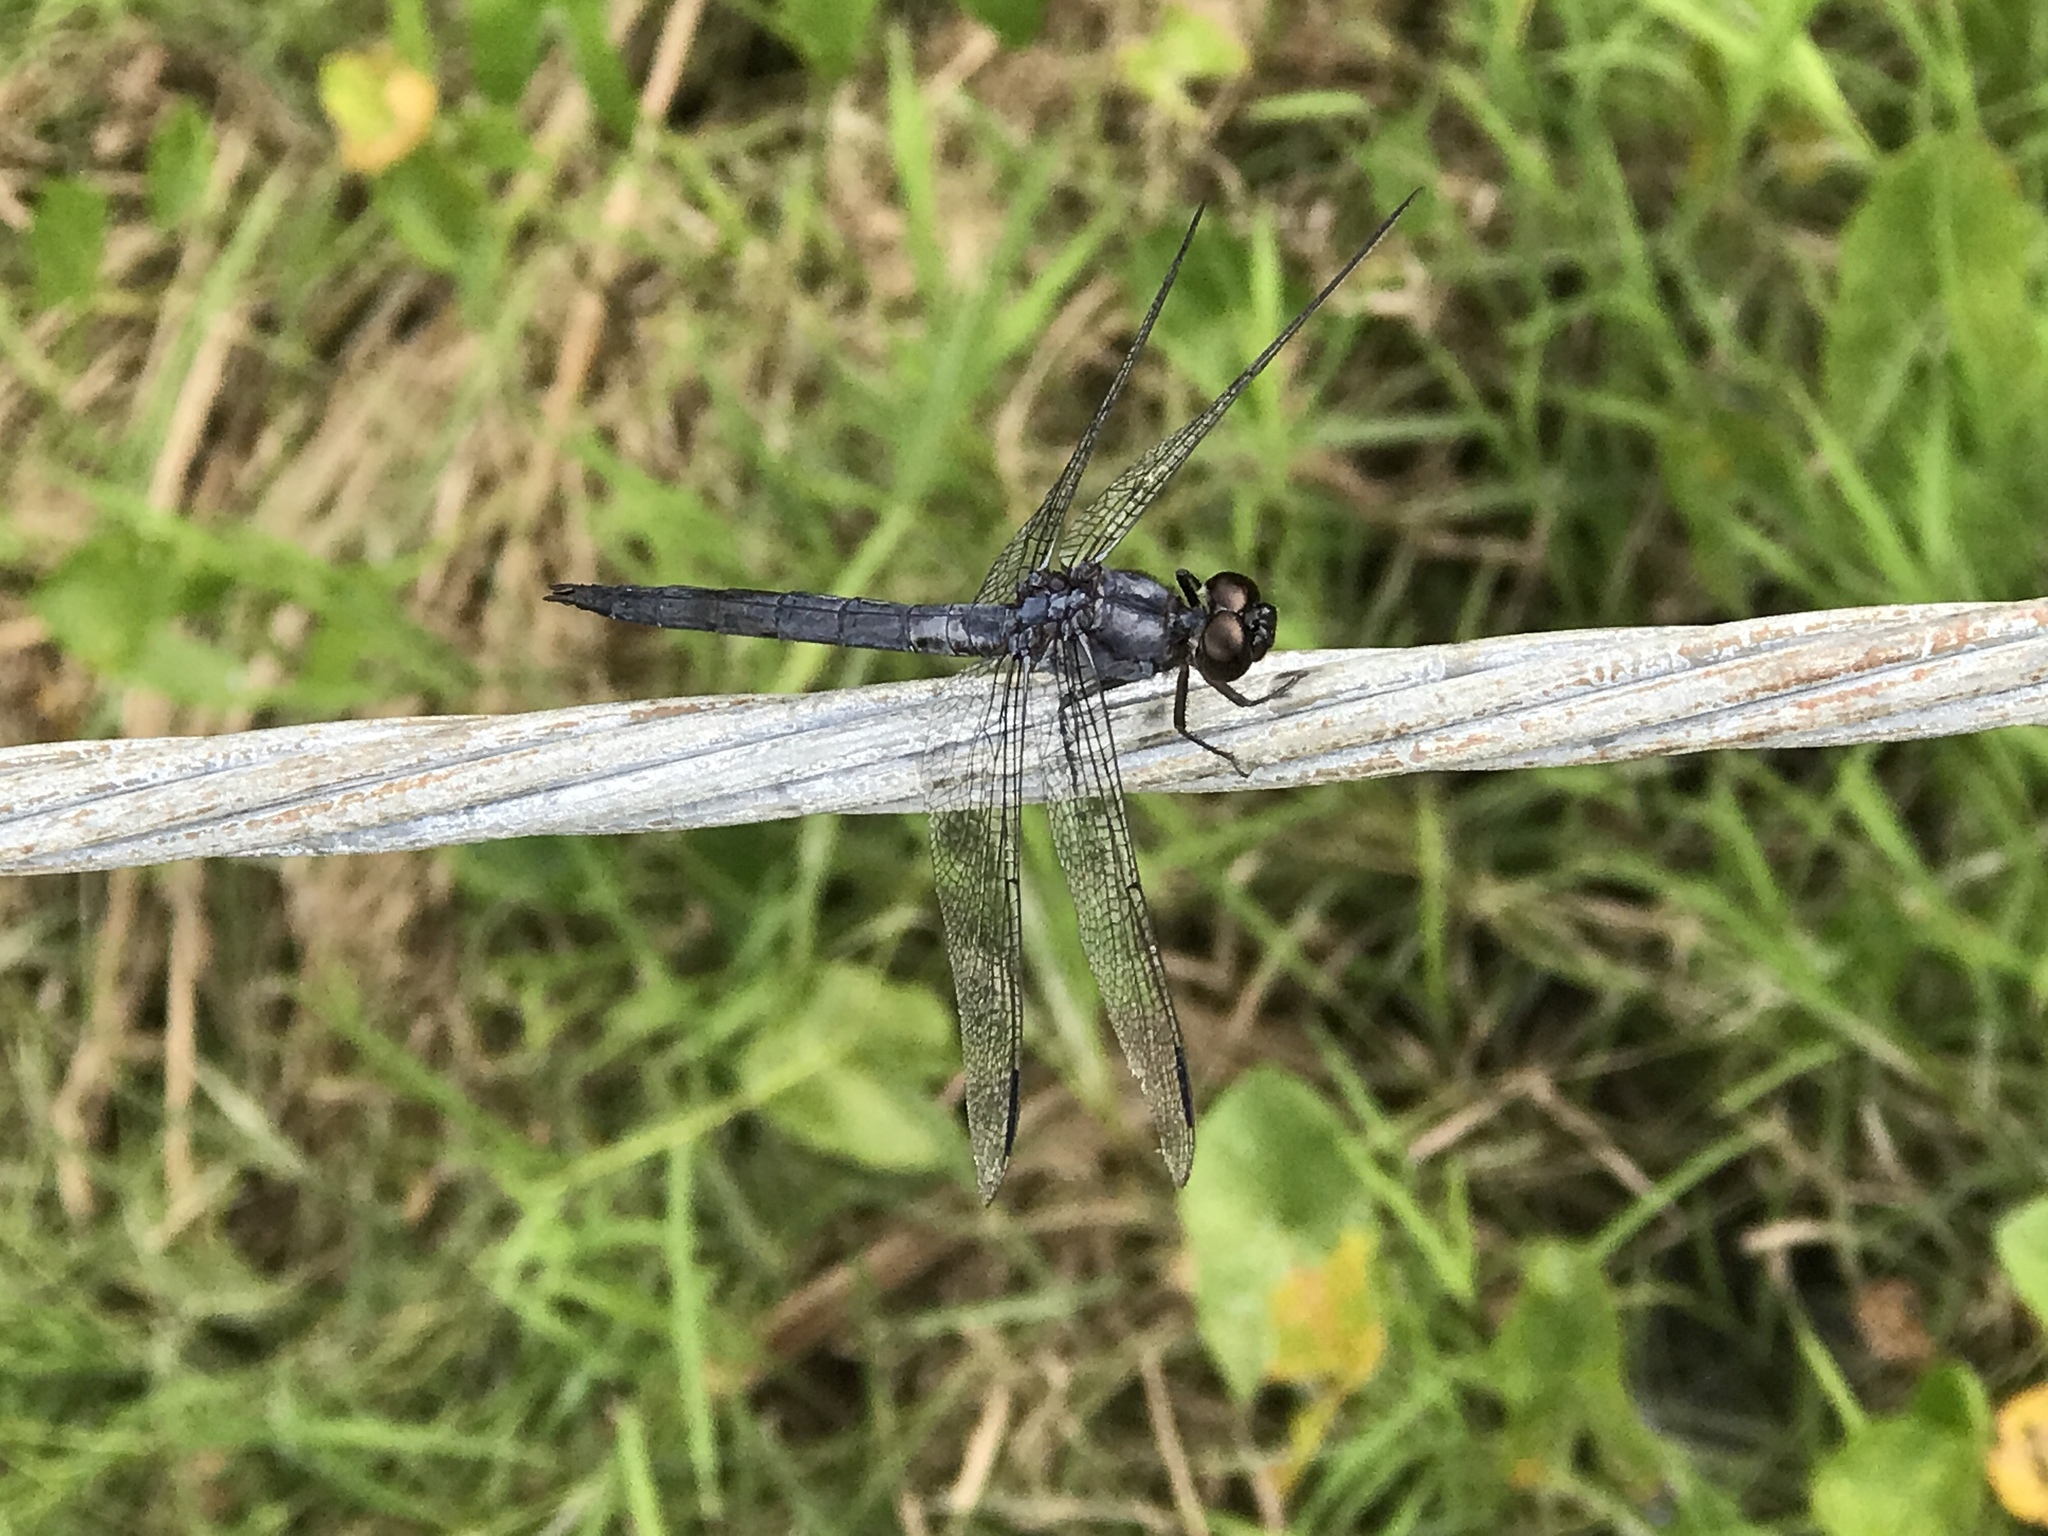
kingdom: Animalia
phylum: Arthropoda
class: Insecta
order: Odonata
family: Libellulidae
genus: Libellula
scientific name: Libellula incesta
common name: Slaty skimmer
